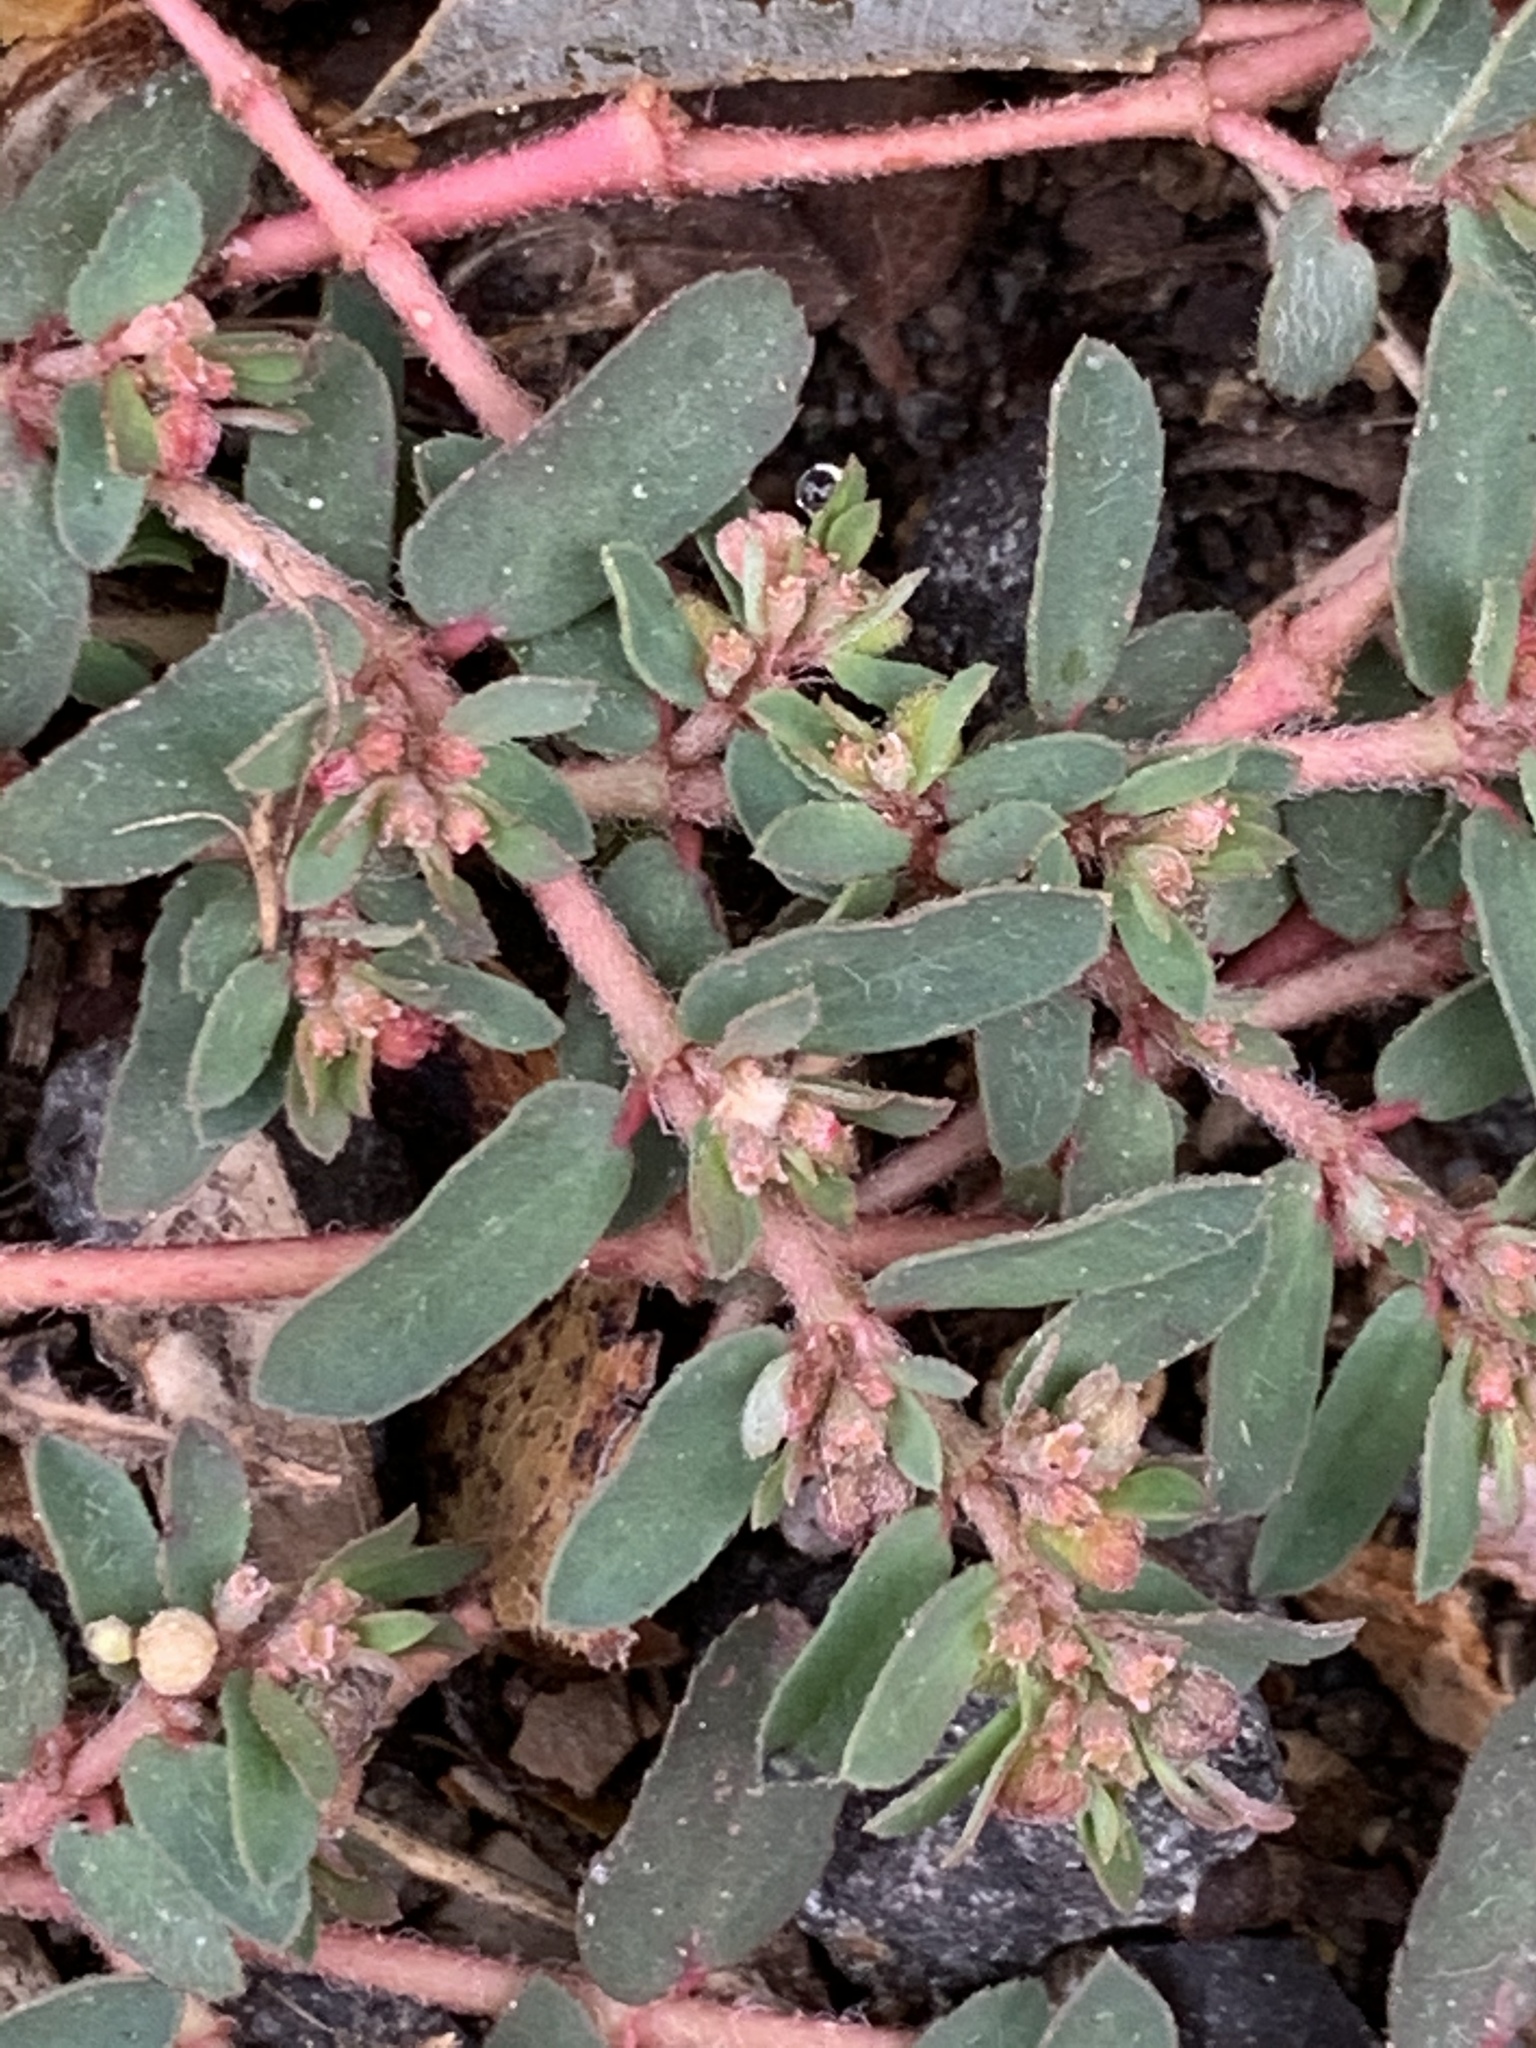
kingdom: Plantae
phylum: Tracheophyta
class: Magnoliopsida
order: Malpighiales
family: Euphorbiaceae
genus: Euphorbia
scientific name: Euphorbia maculata
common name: Spotted spurge
